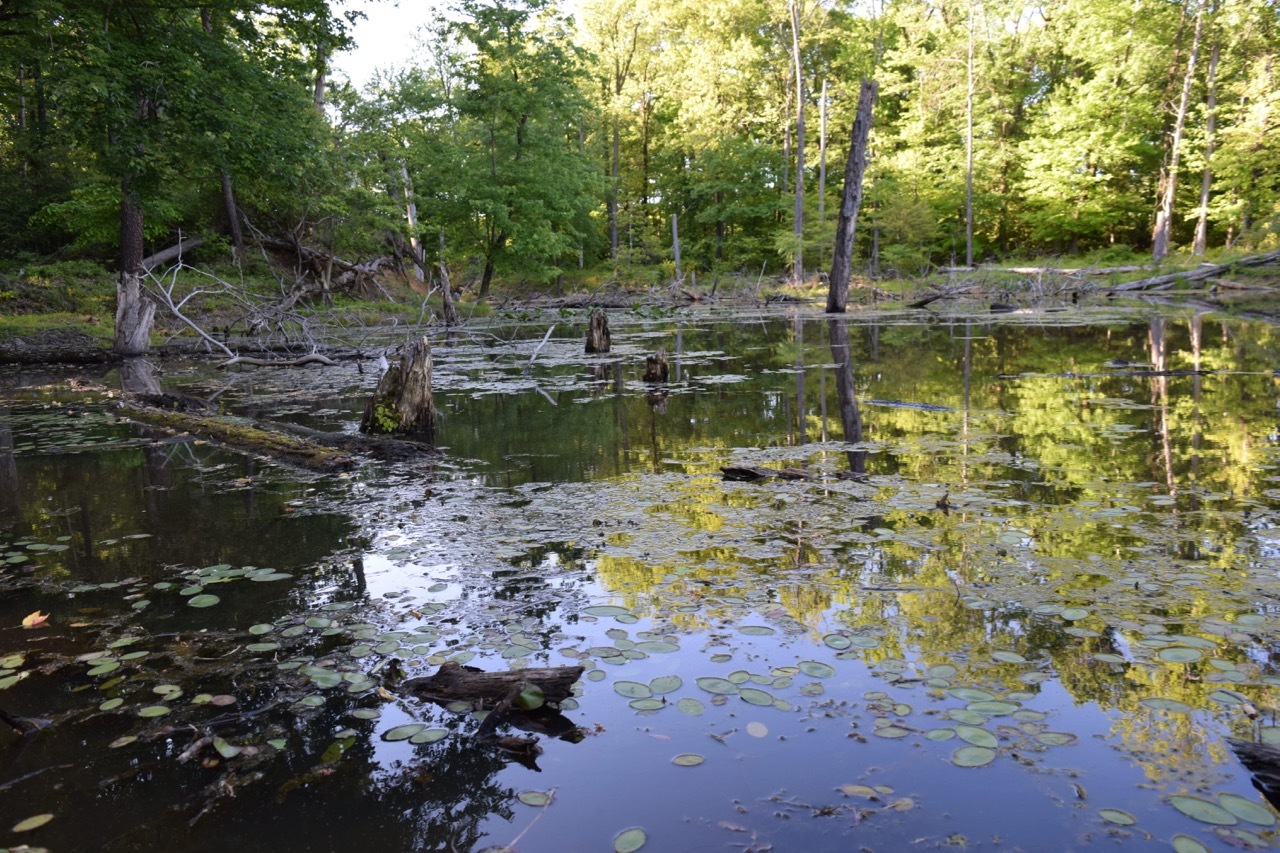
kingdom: Plantae
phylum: Tracheophyta
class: Magnoliopsida
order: Nymphaeales
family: Cabombaceae
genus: Brasenia
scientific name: Brasenia schreberi
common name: Water-shield
